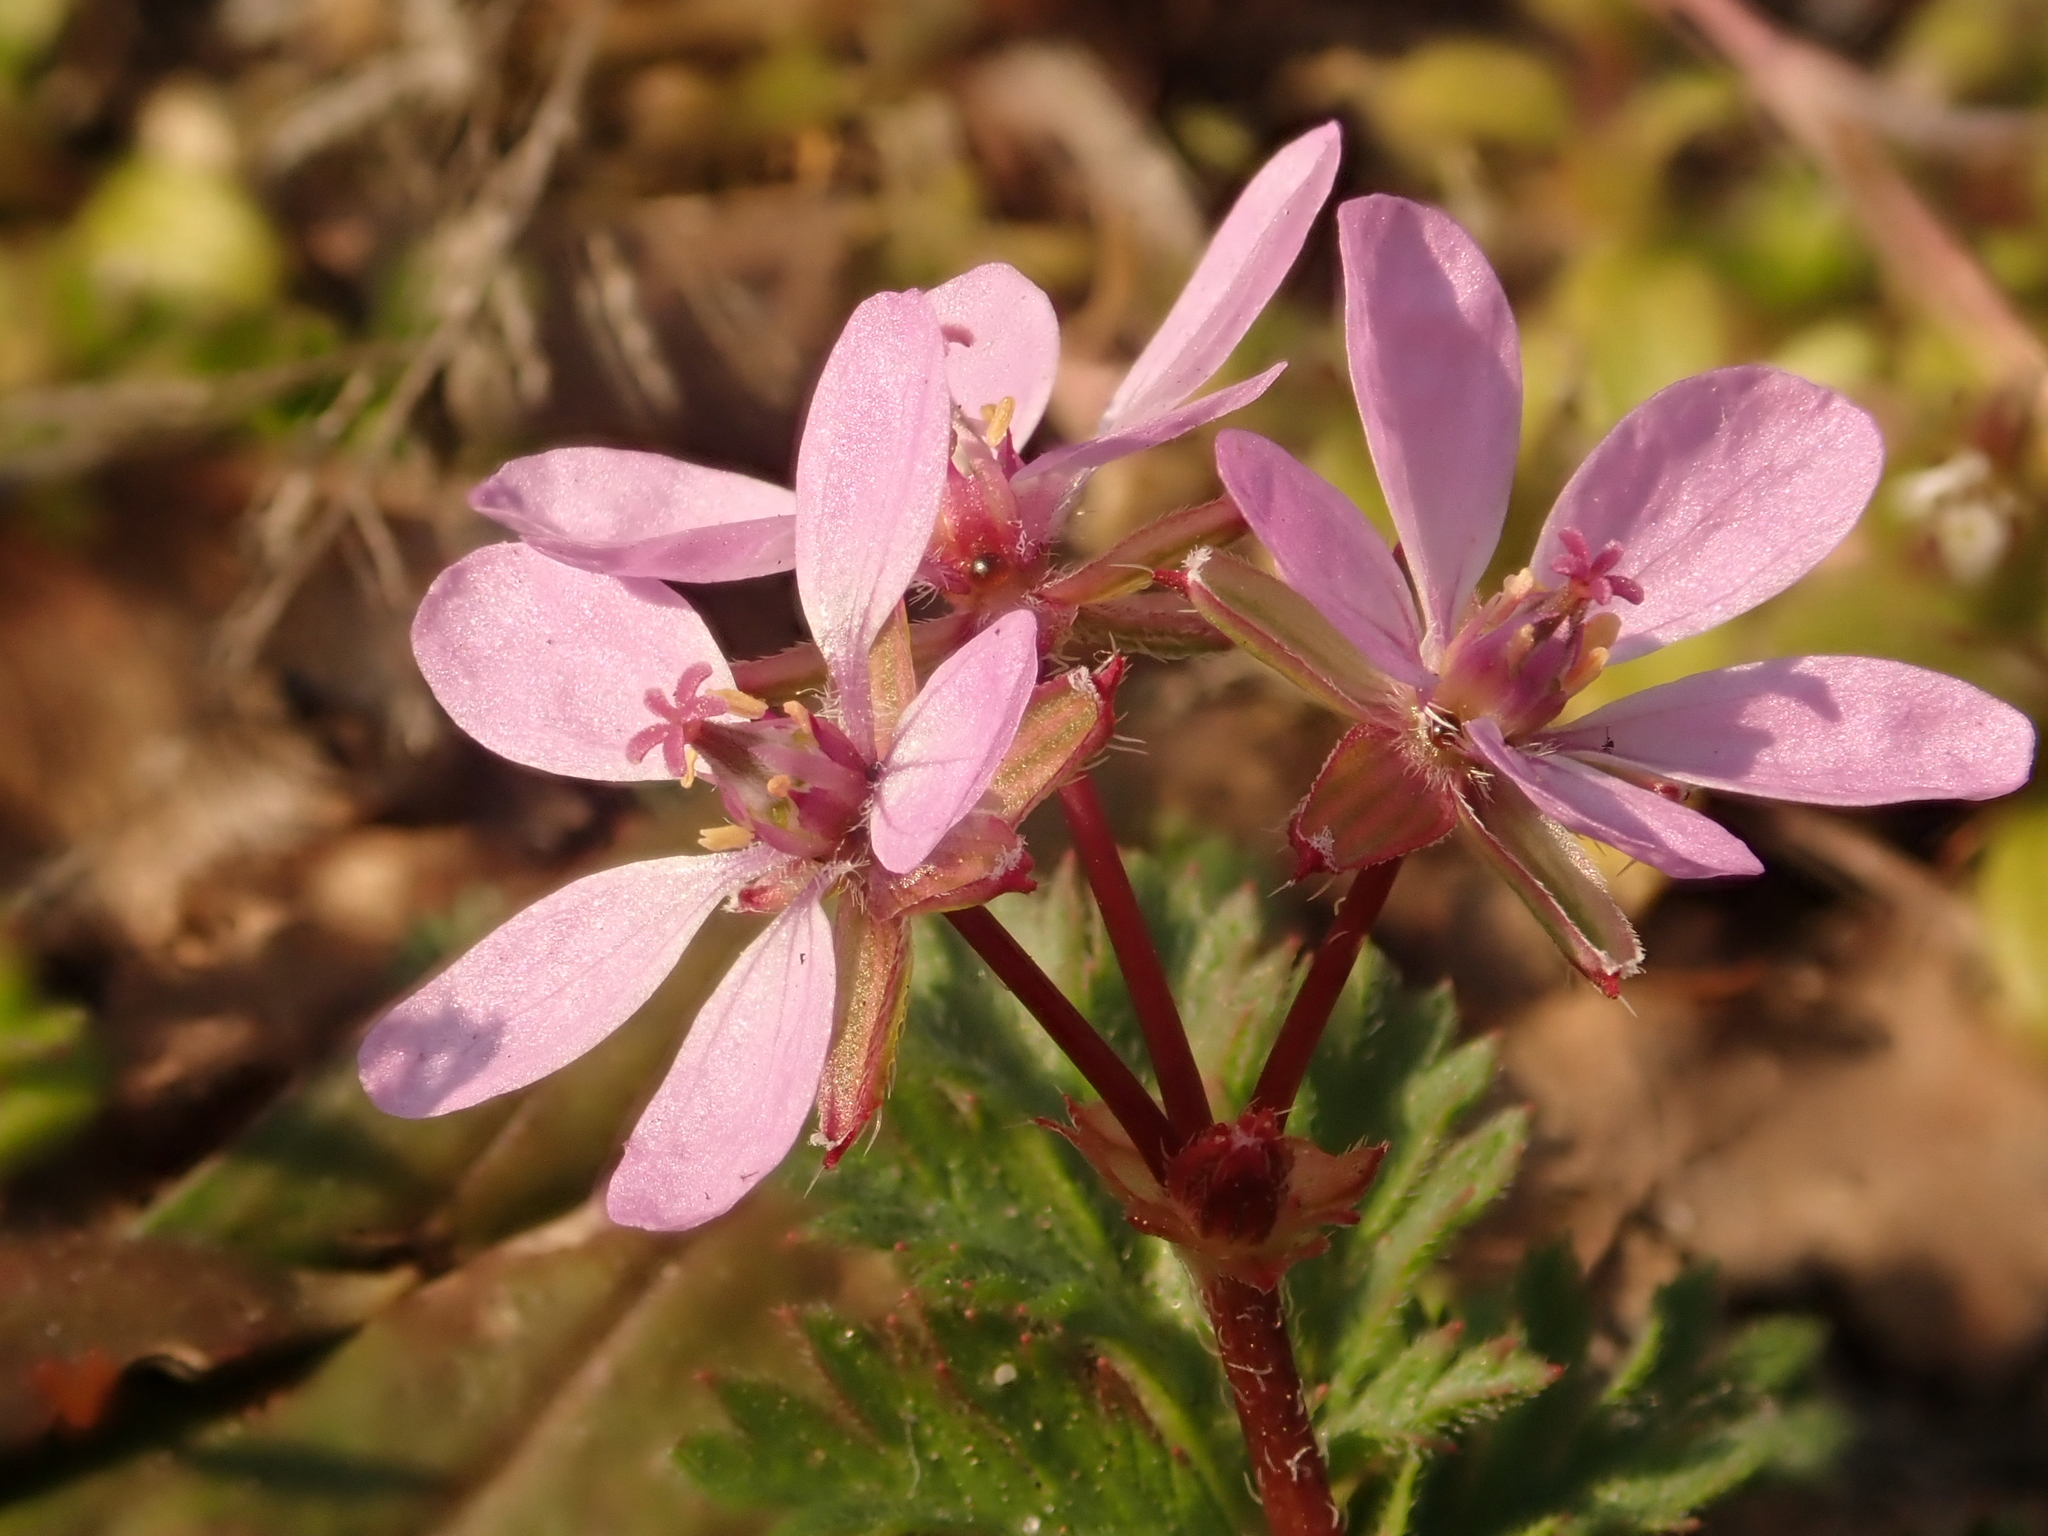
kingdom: Plantae
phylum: Tracheophyta
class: Magnoliopsida
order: Geraniales
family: Geraniaceae
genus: Erodium
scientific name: Erodium cicutarium
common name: Common stork's-bill
